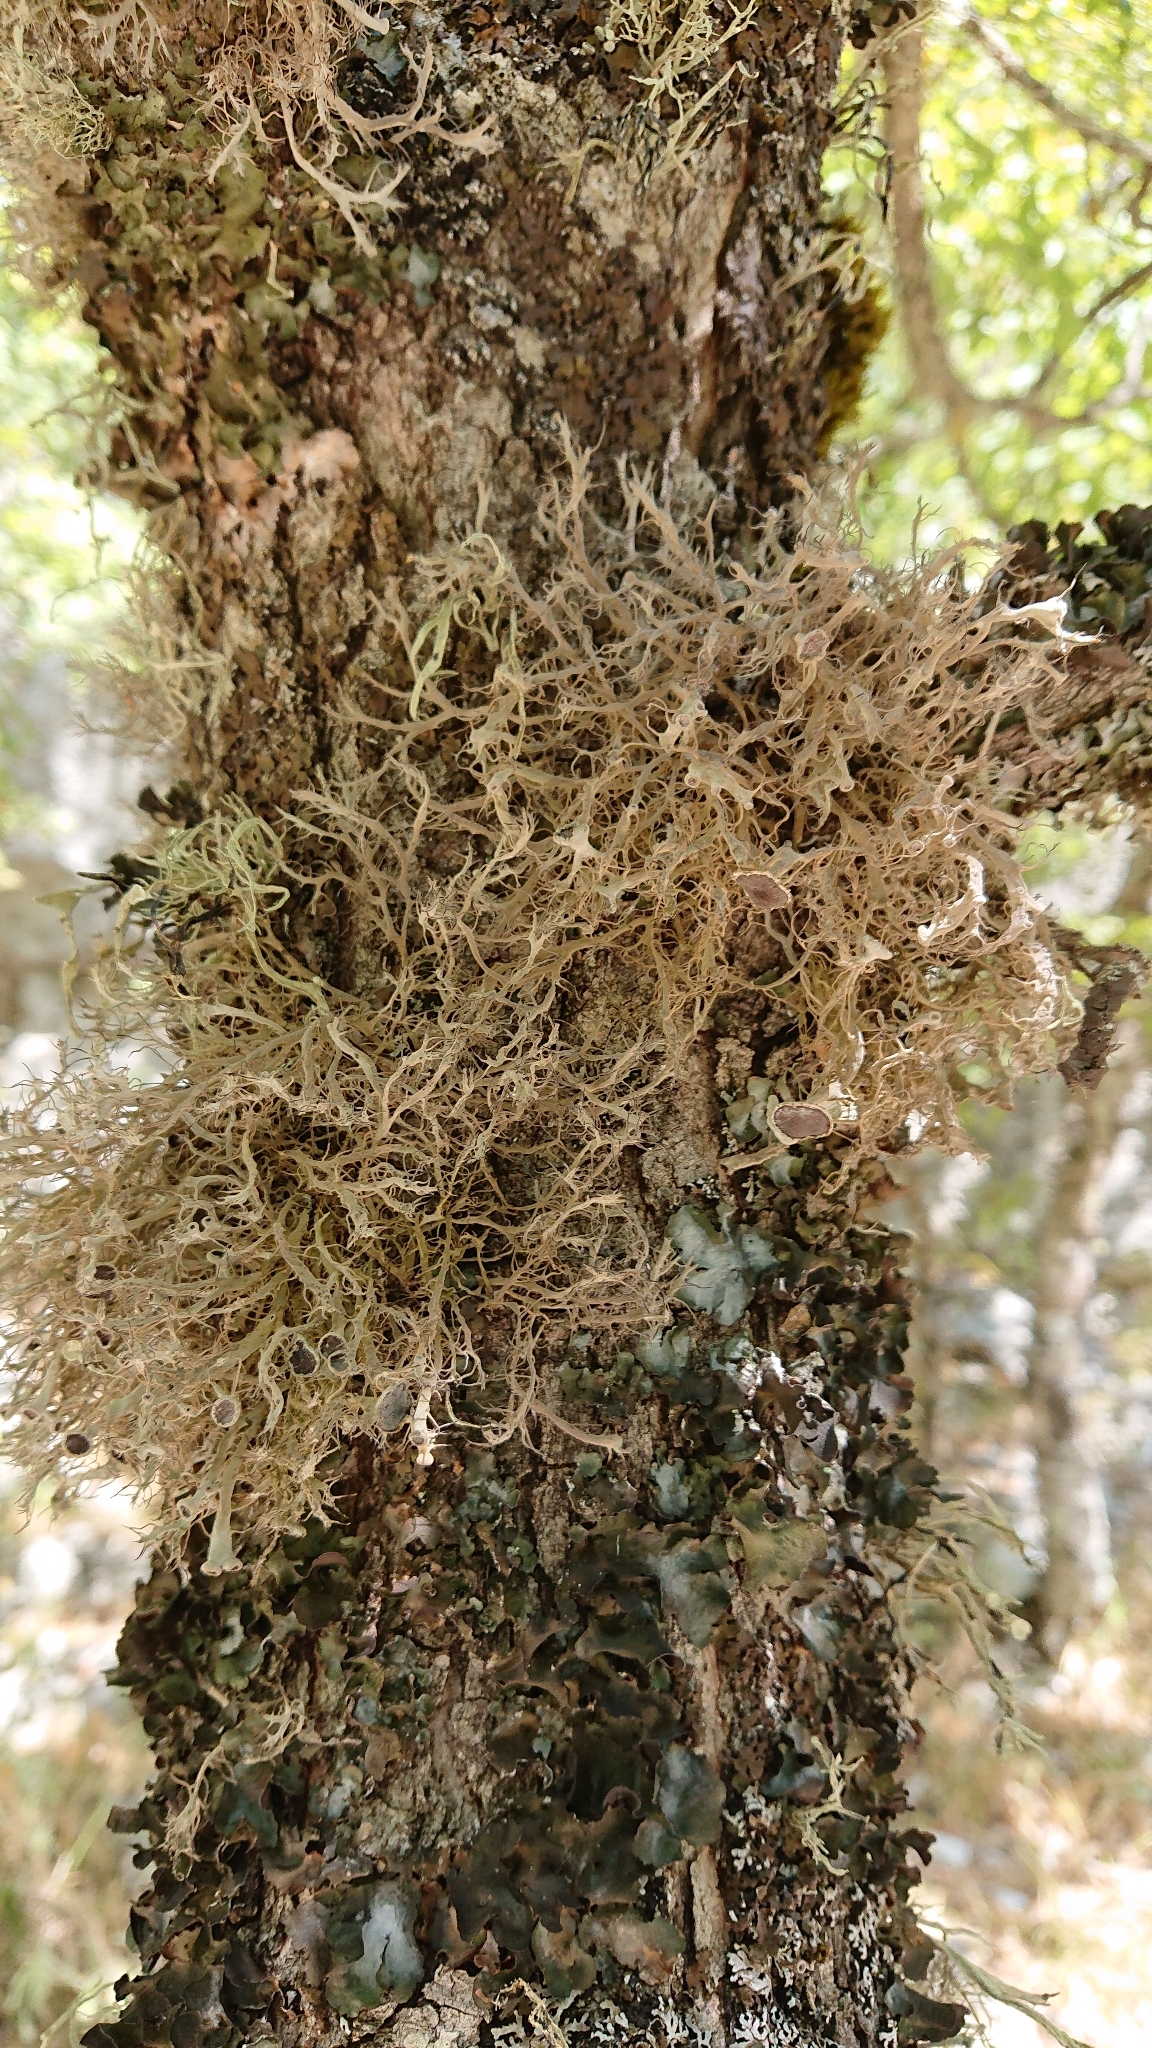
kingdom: Fungi
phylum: Ascomycota
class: Lecanoromycetes
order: Caliciales
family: Physciaceae
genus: Anaptychia
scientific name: Anaptychia ciliaris
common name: Great ciliated lichen
